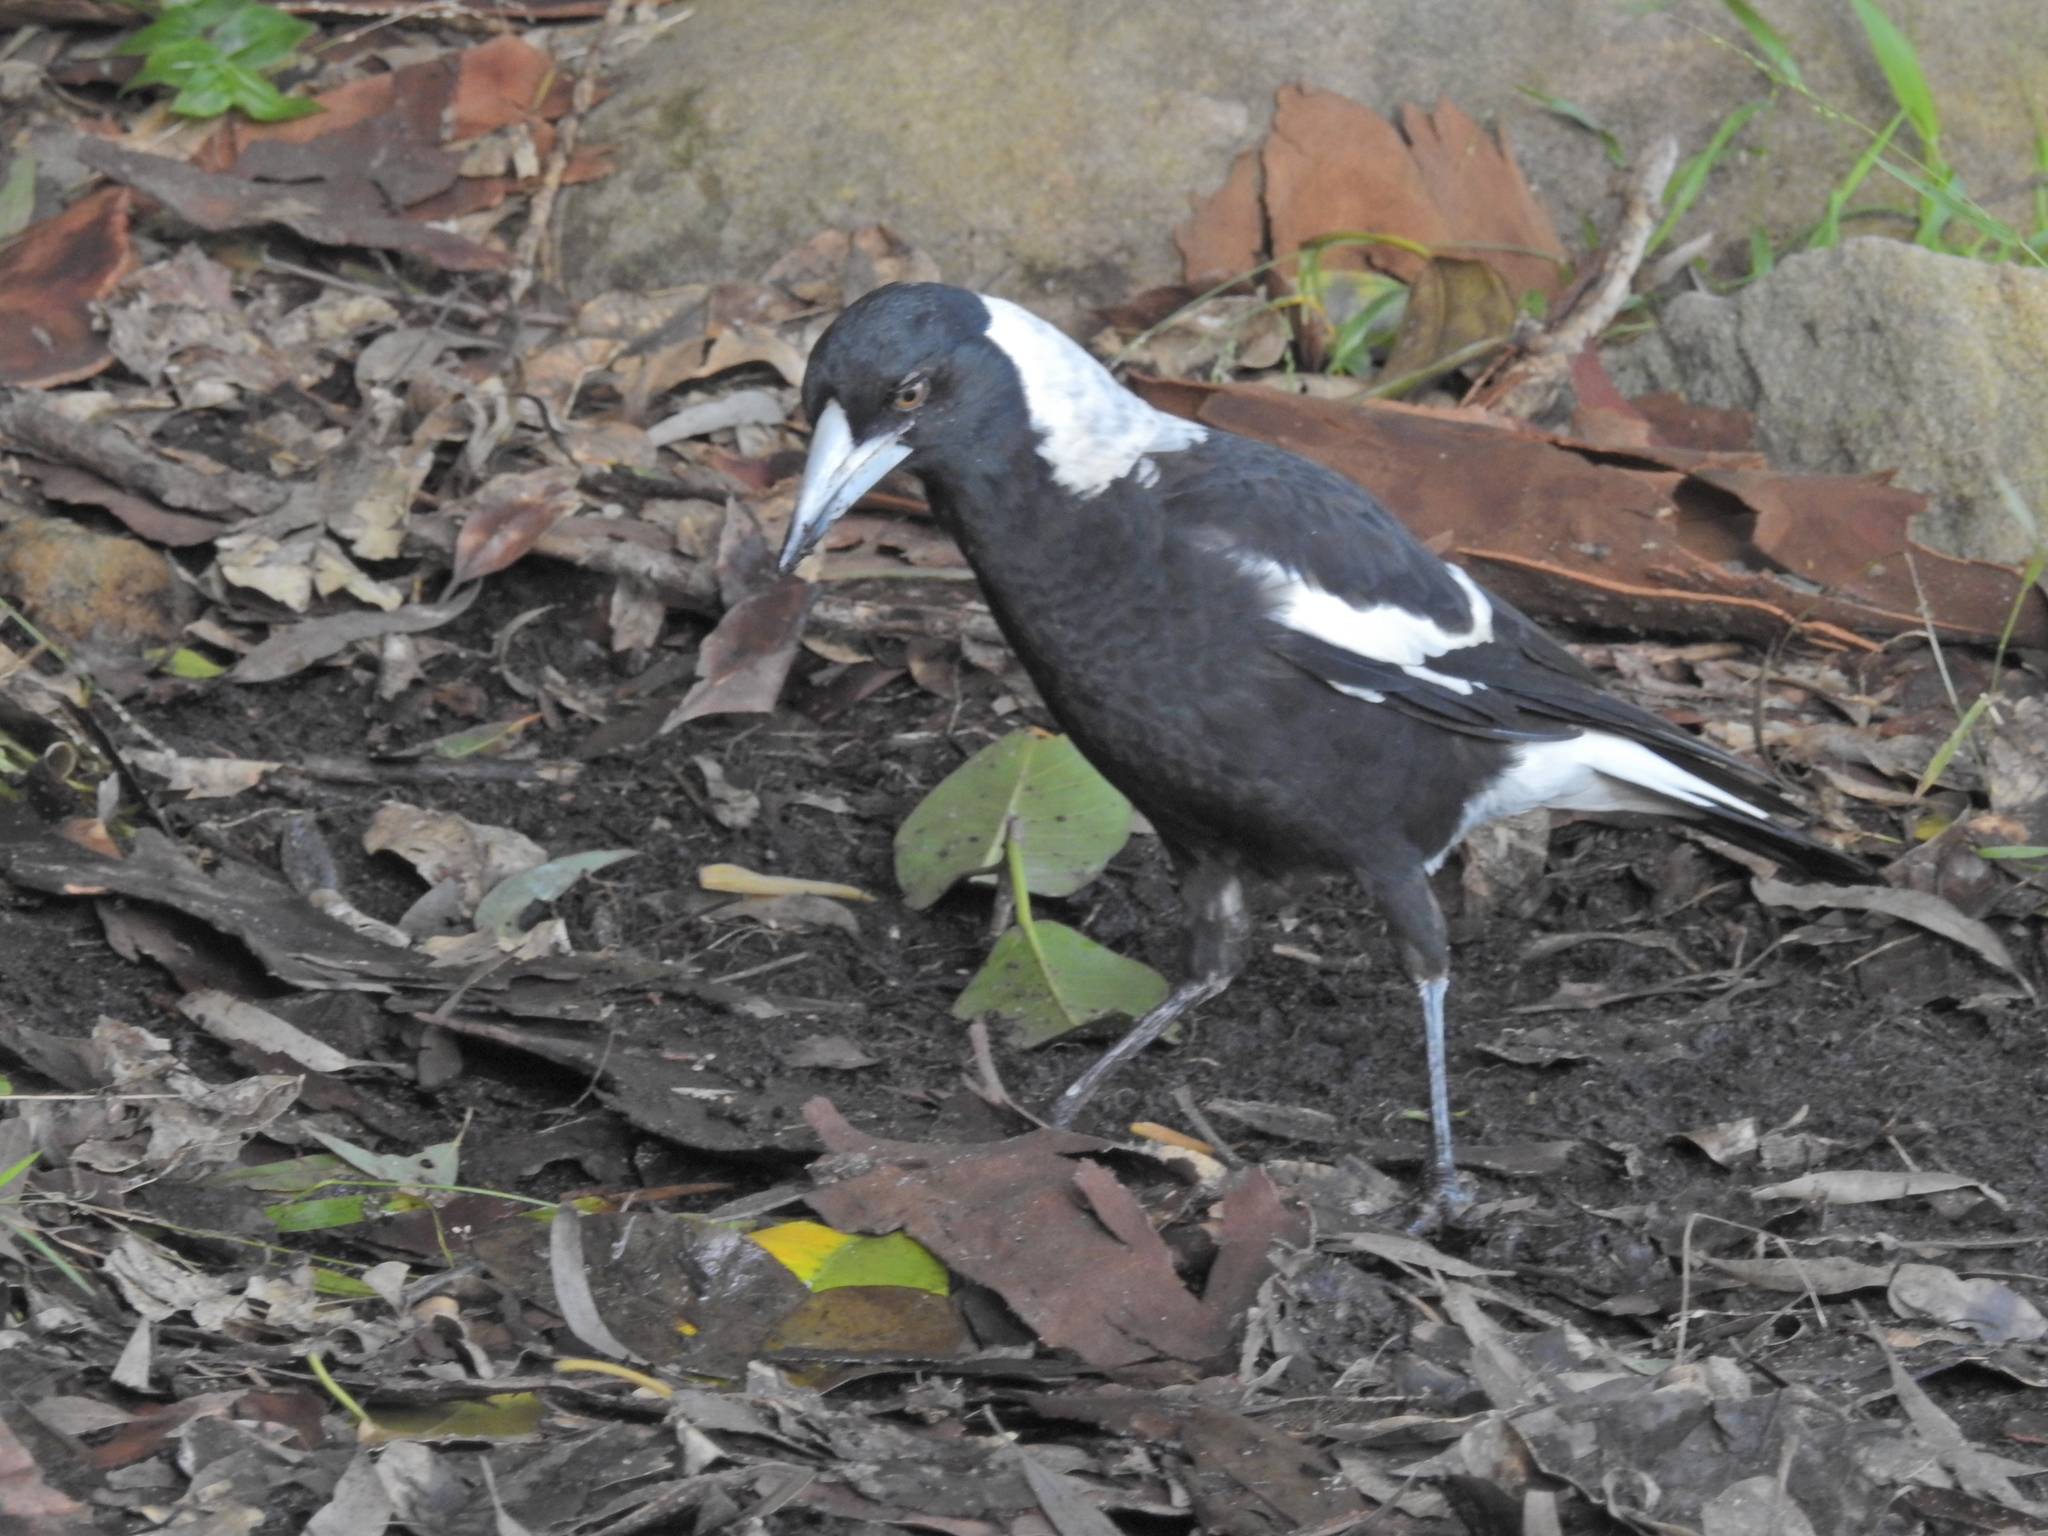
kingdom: Animalia
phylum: Chordata
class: Aves
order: Passeriformes
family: Cracticidae
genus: Gymnorhina
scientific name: Gymnorhina tibicen
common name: Australian magpie
